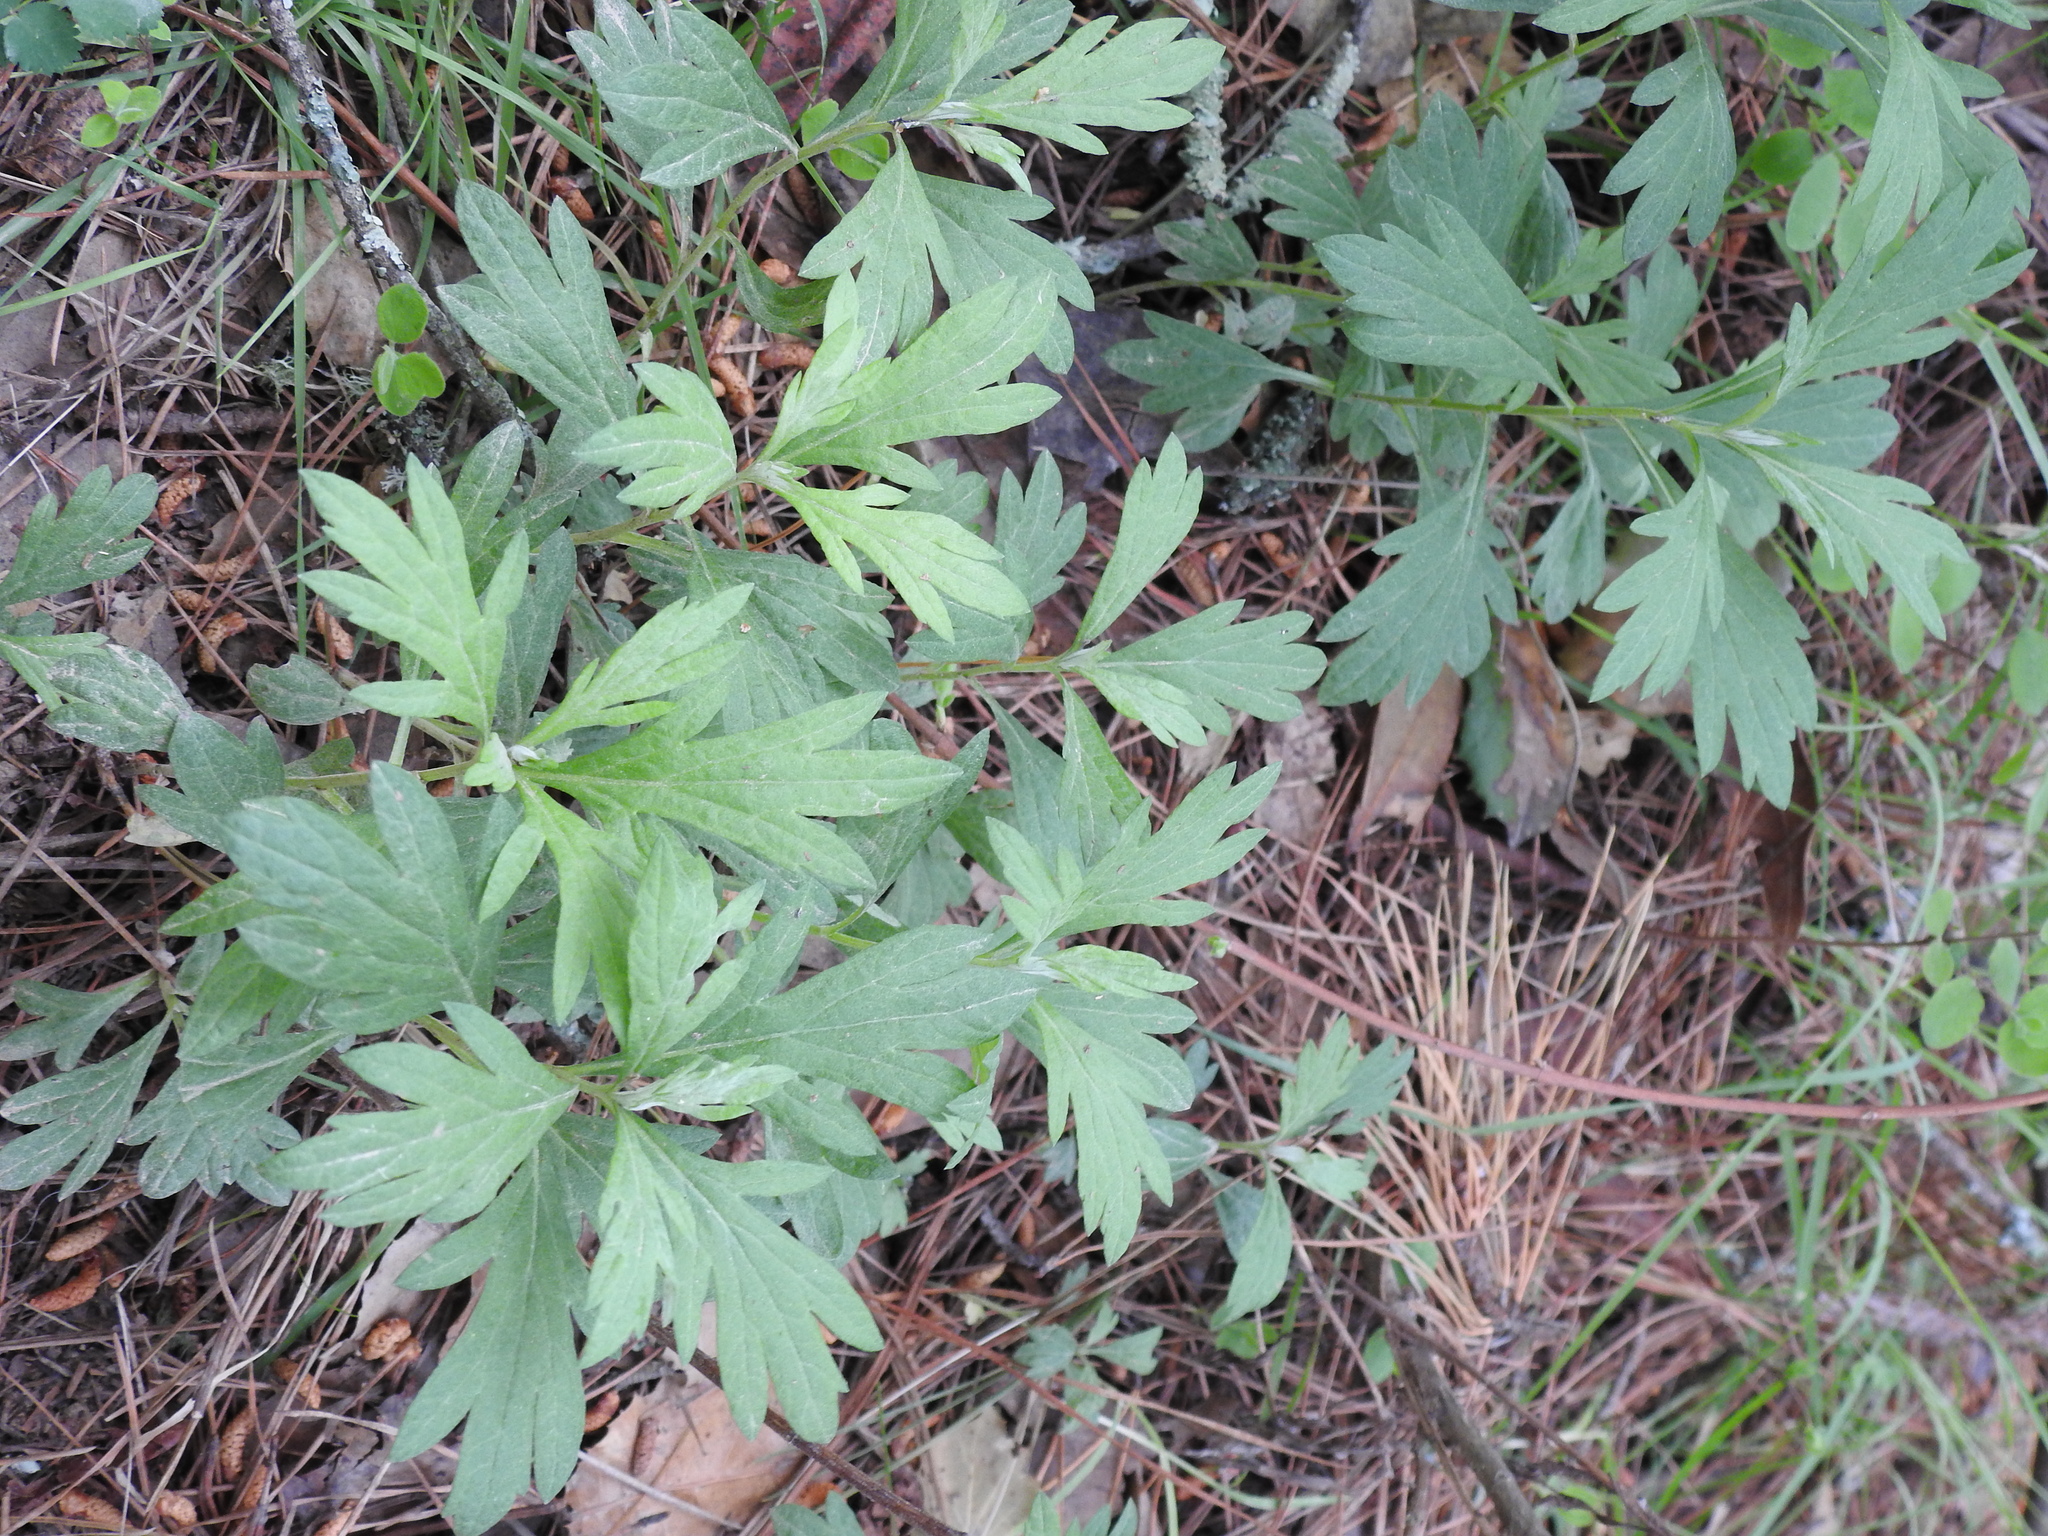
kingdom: Plantae
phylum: Tracheophyta
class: Magnoliopsida
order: Asterales
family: Asteraceae
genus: Artemisia
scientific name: Artemisia douglasiana
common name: Northwest mugwort
